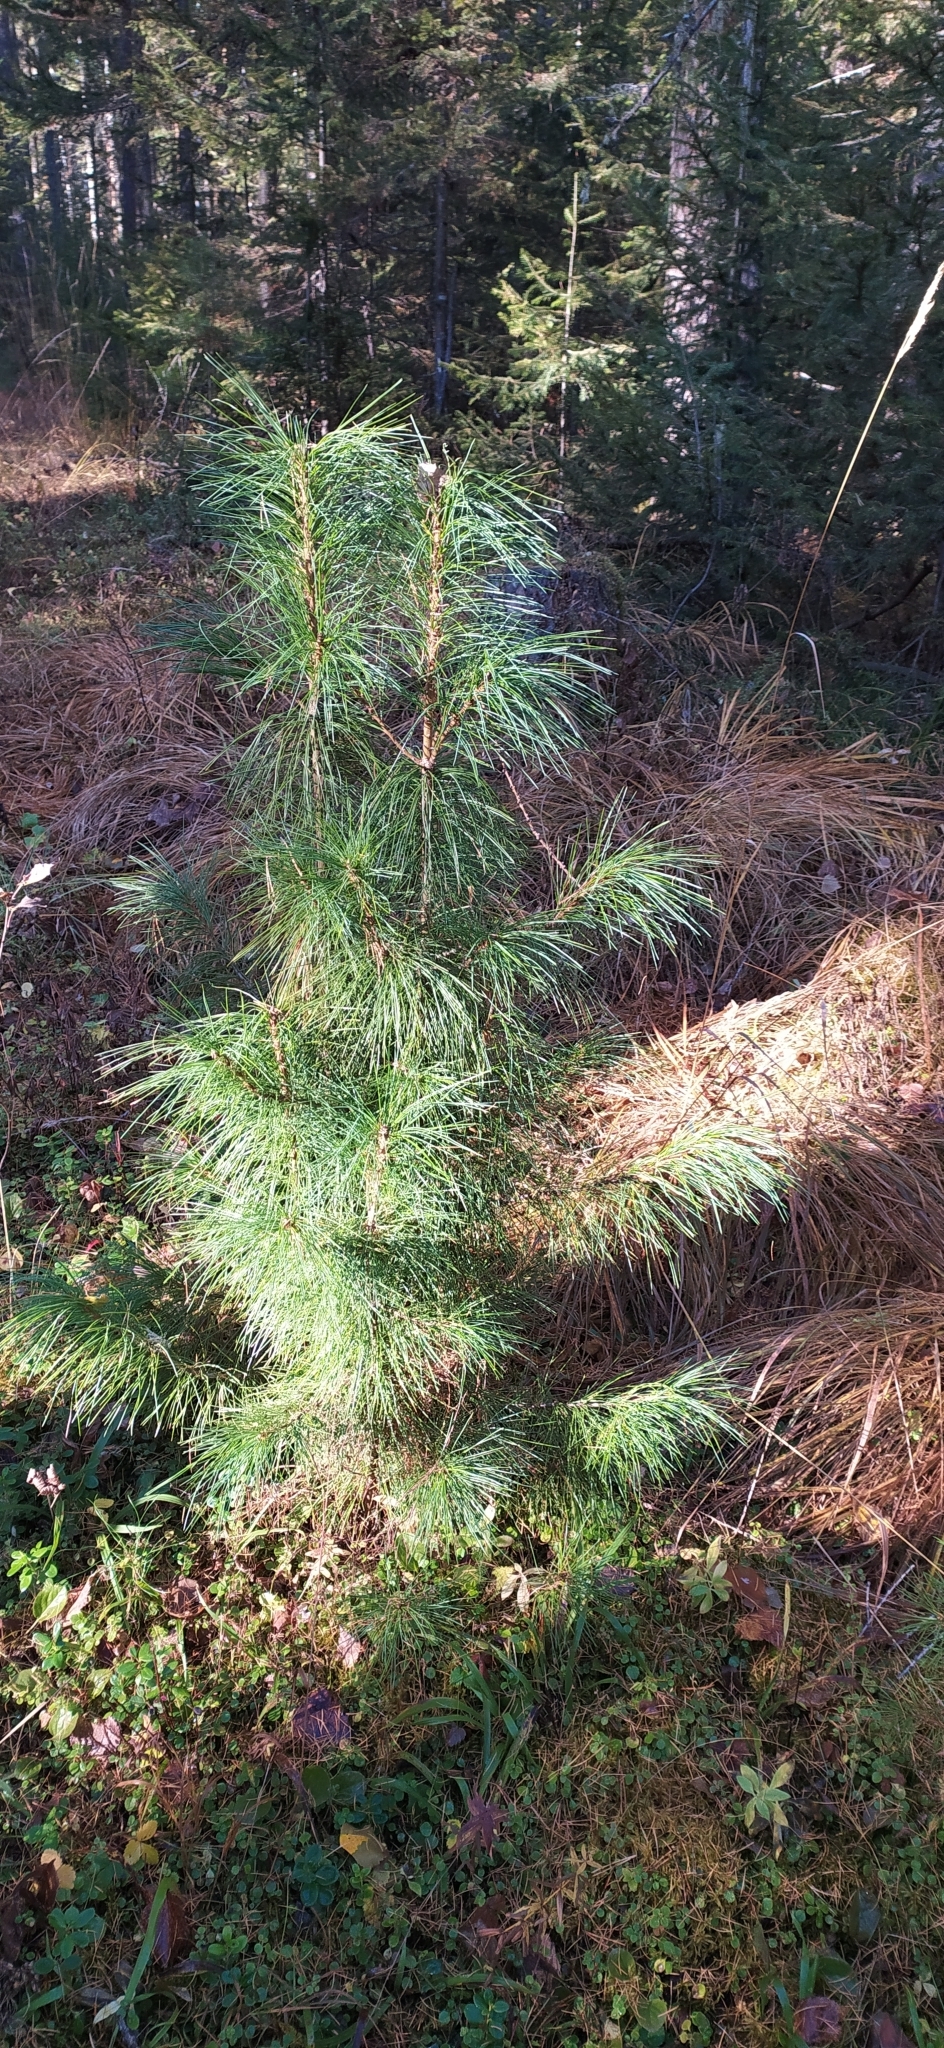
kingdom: Plantae
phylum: Tracheophyta
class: Pinopsida
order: Pinales
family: Pinaceae
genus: Pinus
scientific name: Pinus sibirica
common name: Siberian pine
